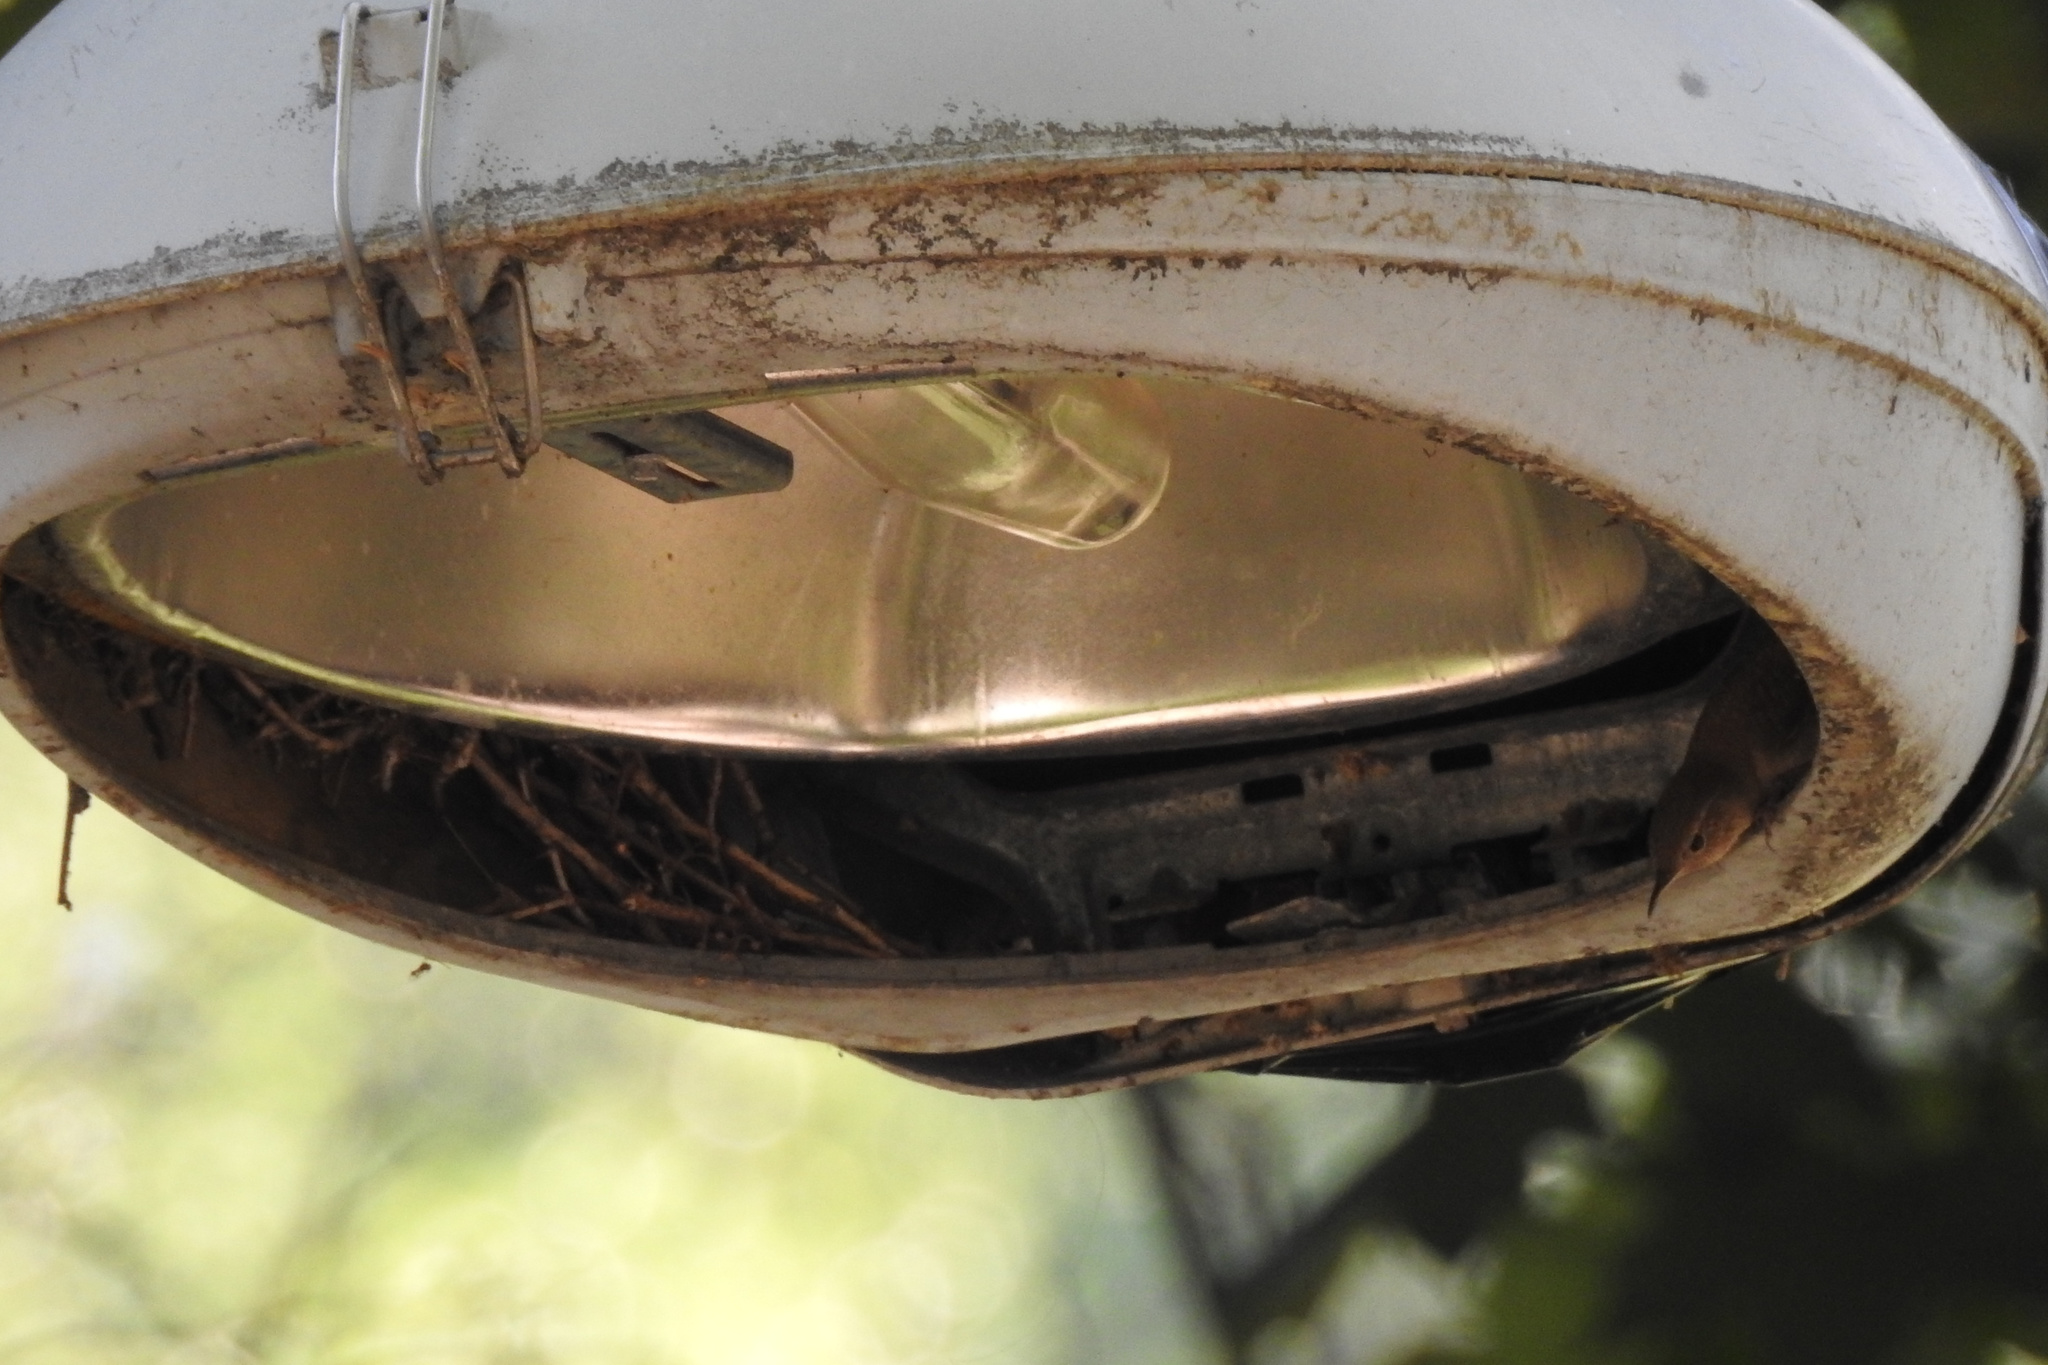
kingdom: Animalia
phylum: Chordata
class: Aves
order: Passeriformes
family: Troglodytidae
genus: Troglodytes
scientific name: Troglodytes aedon
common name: House wren
